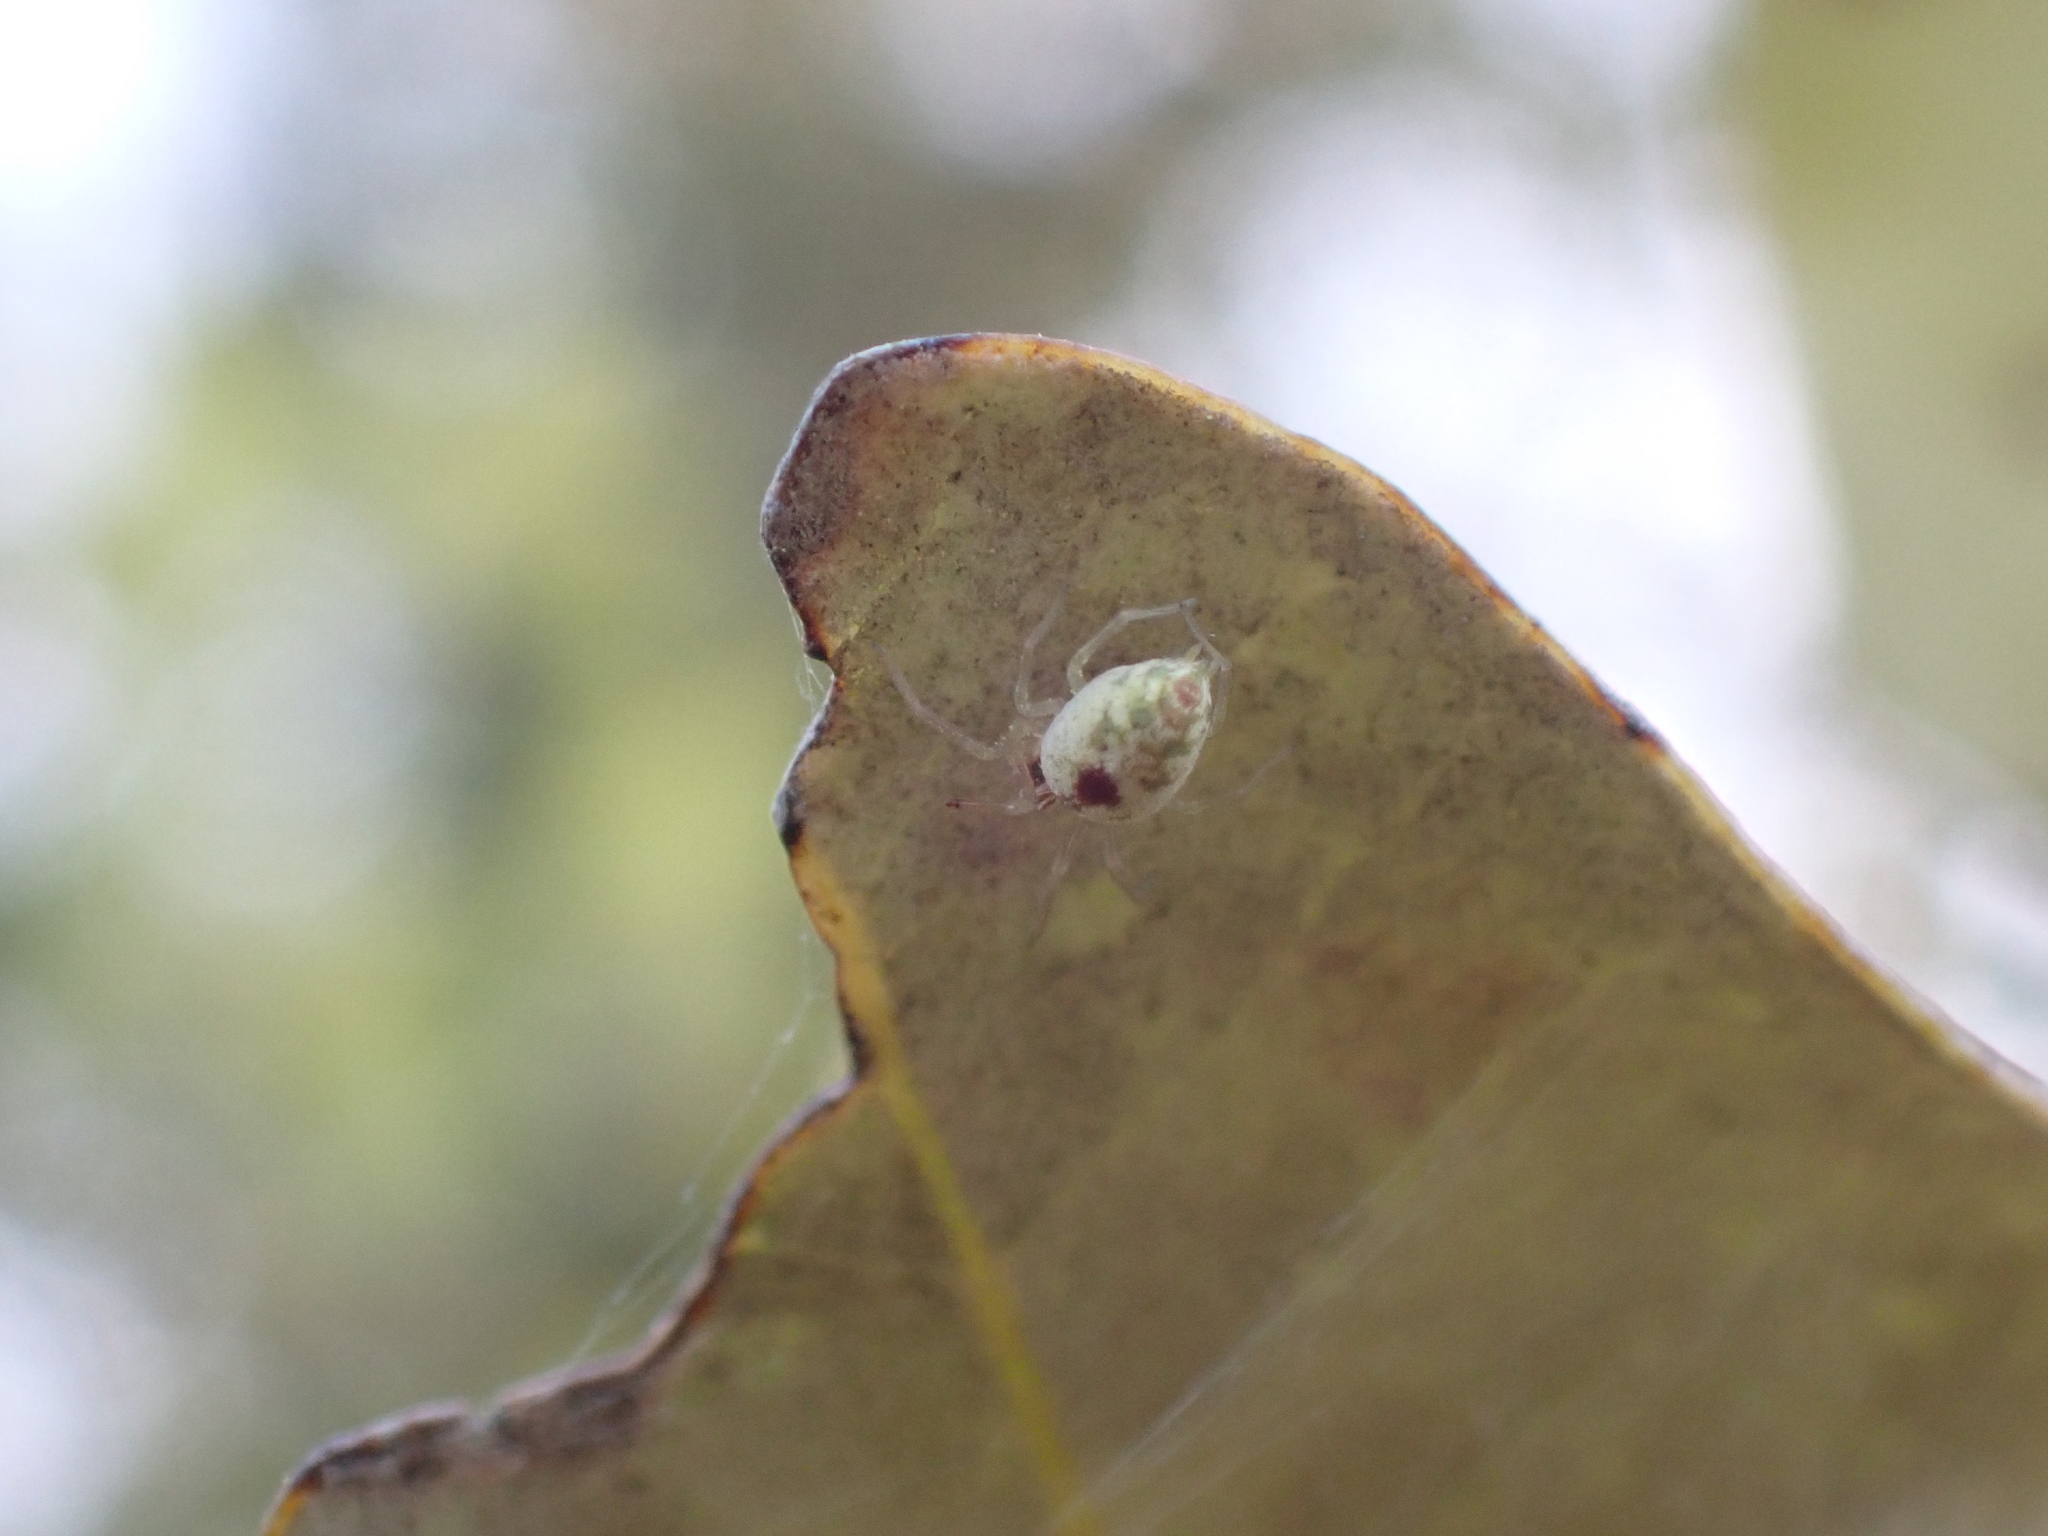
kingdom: Animalia
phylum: Arthropoda
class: Arachnida
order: Araneae
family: Dictynidae
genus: Nigma
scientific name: Nigma puella
